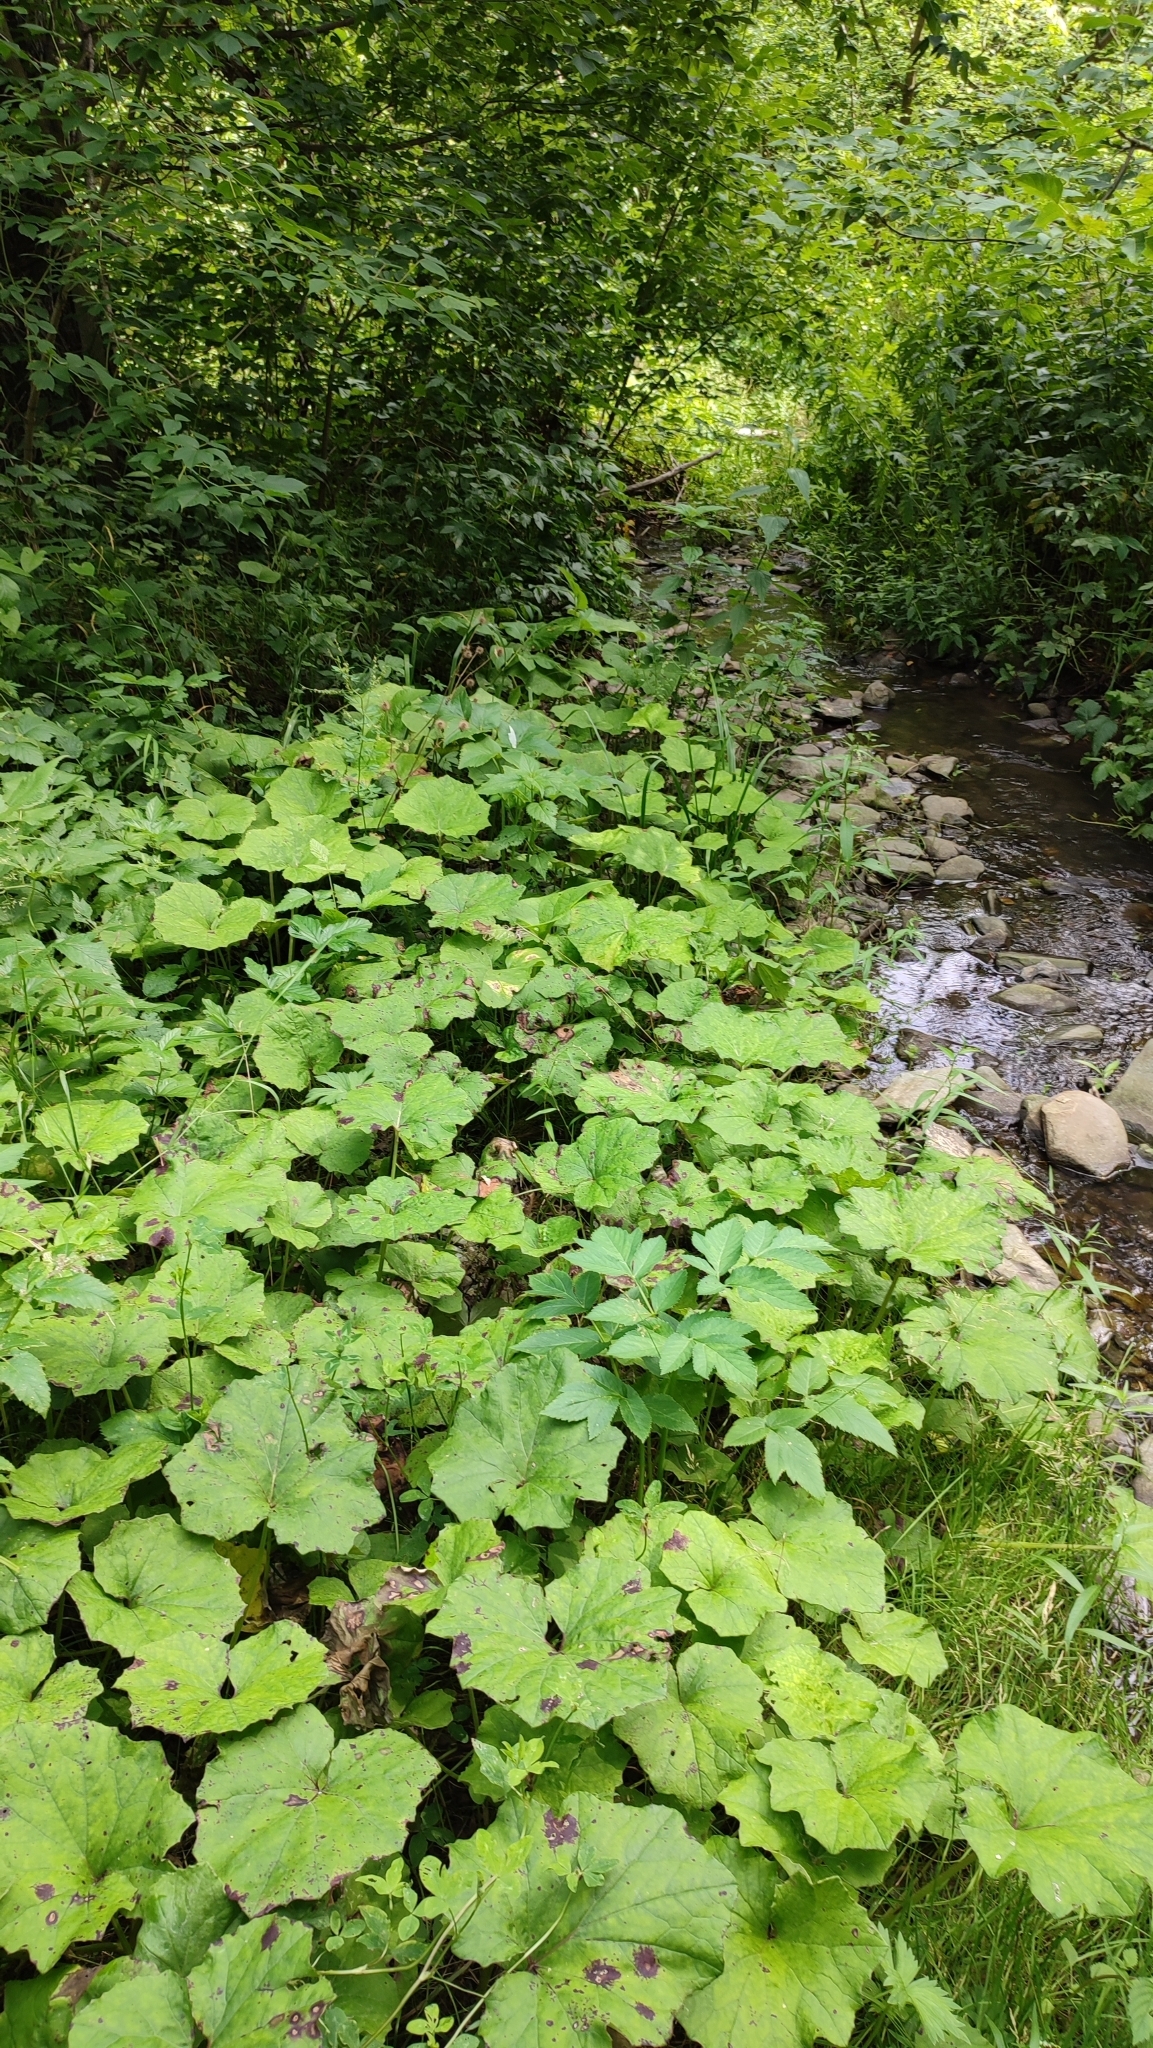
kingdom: Plantae
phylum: Tracheophyta
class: Magnoliopsida
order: Asterales
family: Asteraceae
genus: Tussilago
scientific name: Tussilago farfara
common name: Coltsfoot
